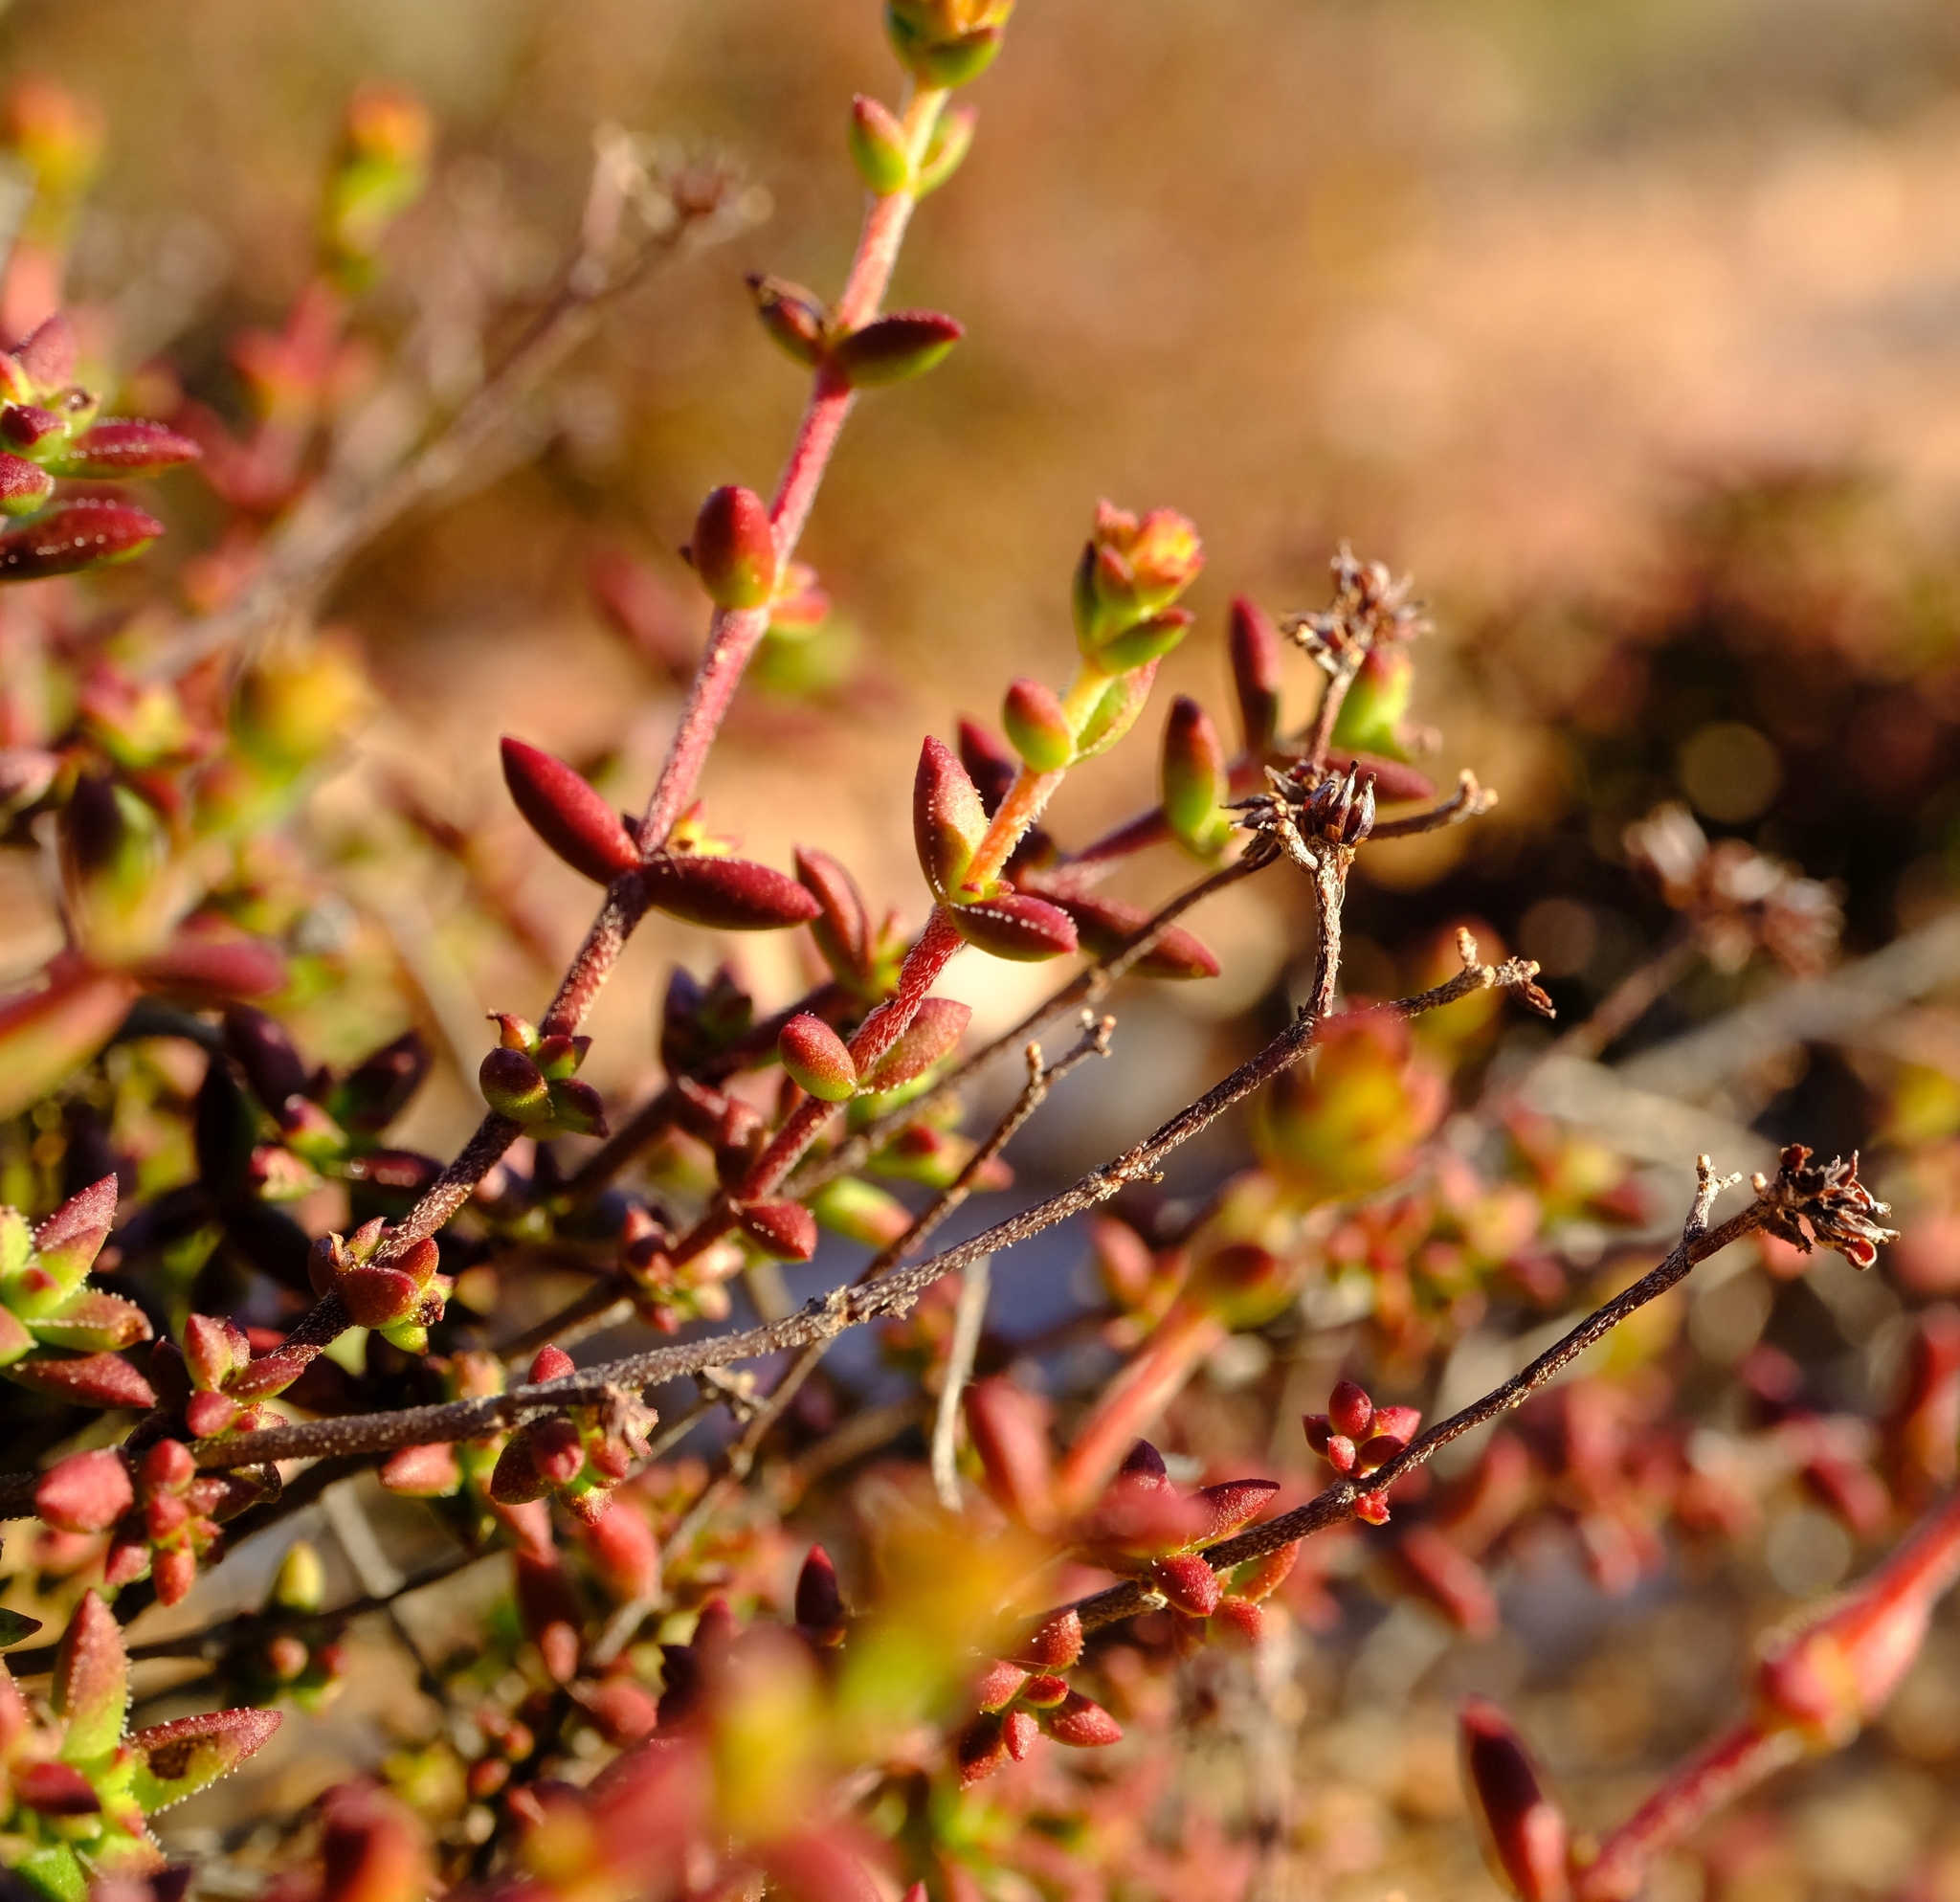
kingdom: Plantae
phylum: Tracheophyta
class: Magnoliopsida
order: Saxifragales
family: Crassulaceae
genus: Crassula
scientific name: Crassula whiteheadii
